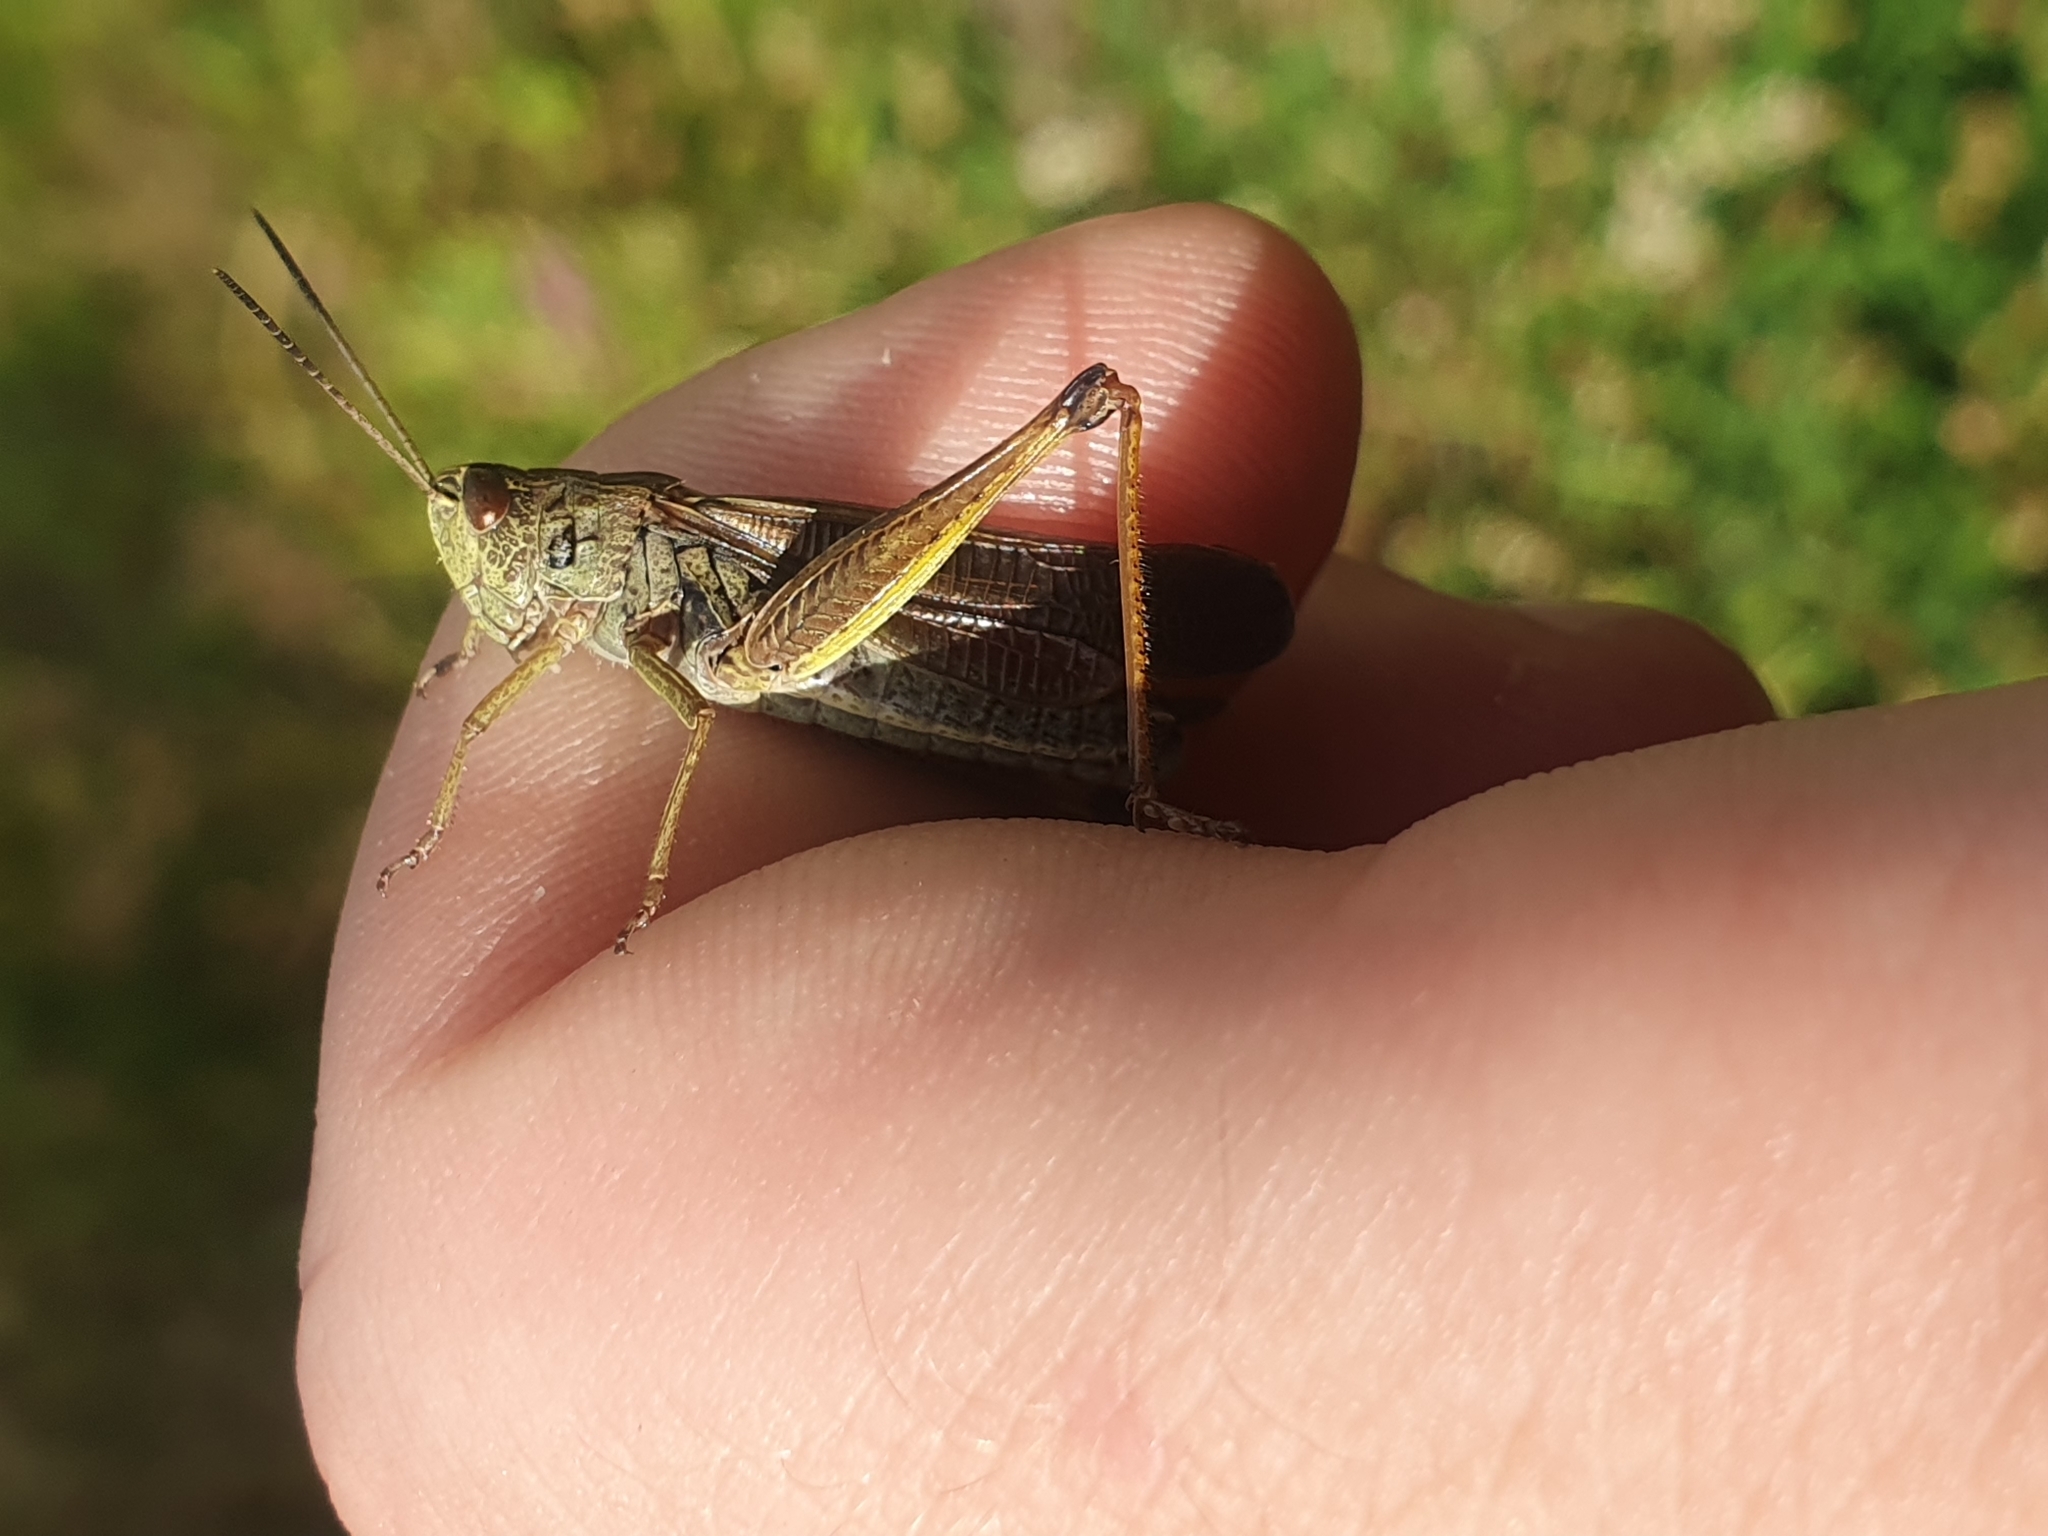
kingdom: Animalia
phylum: Arthropoda
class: Insecta
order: Orthoptera
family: Acrididae
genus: Stauroderus
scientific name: Stauroderus scalaris
